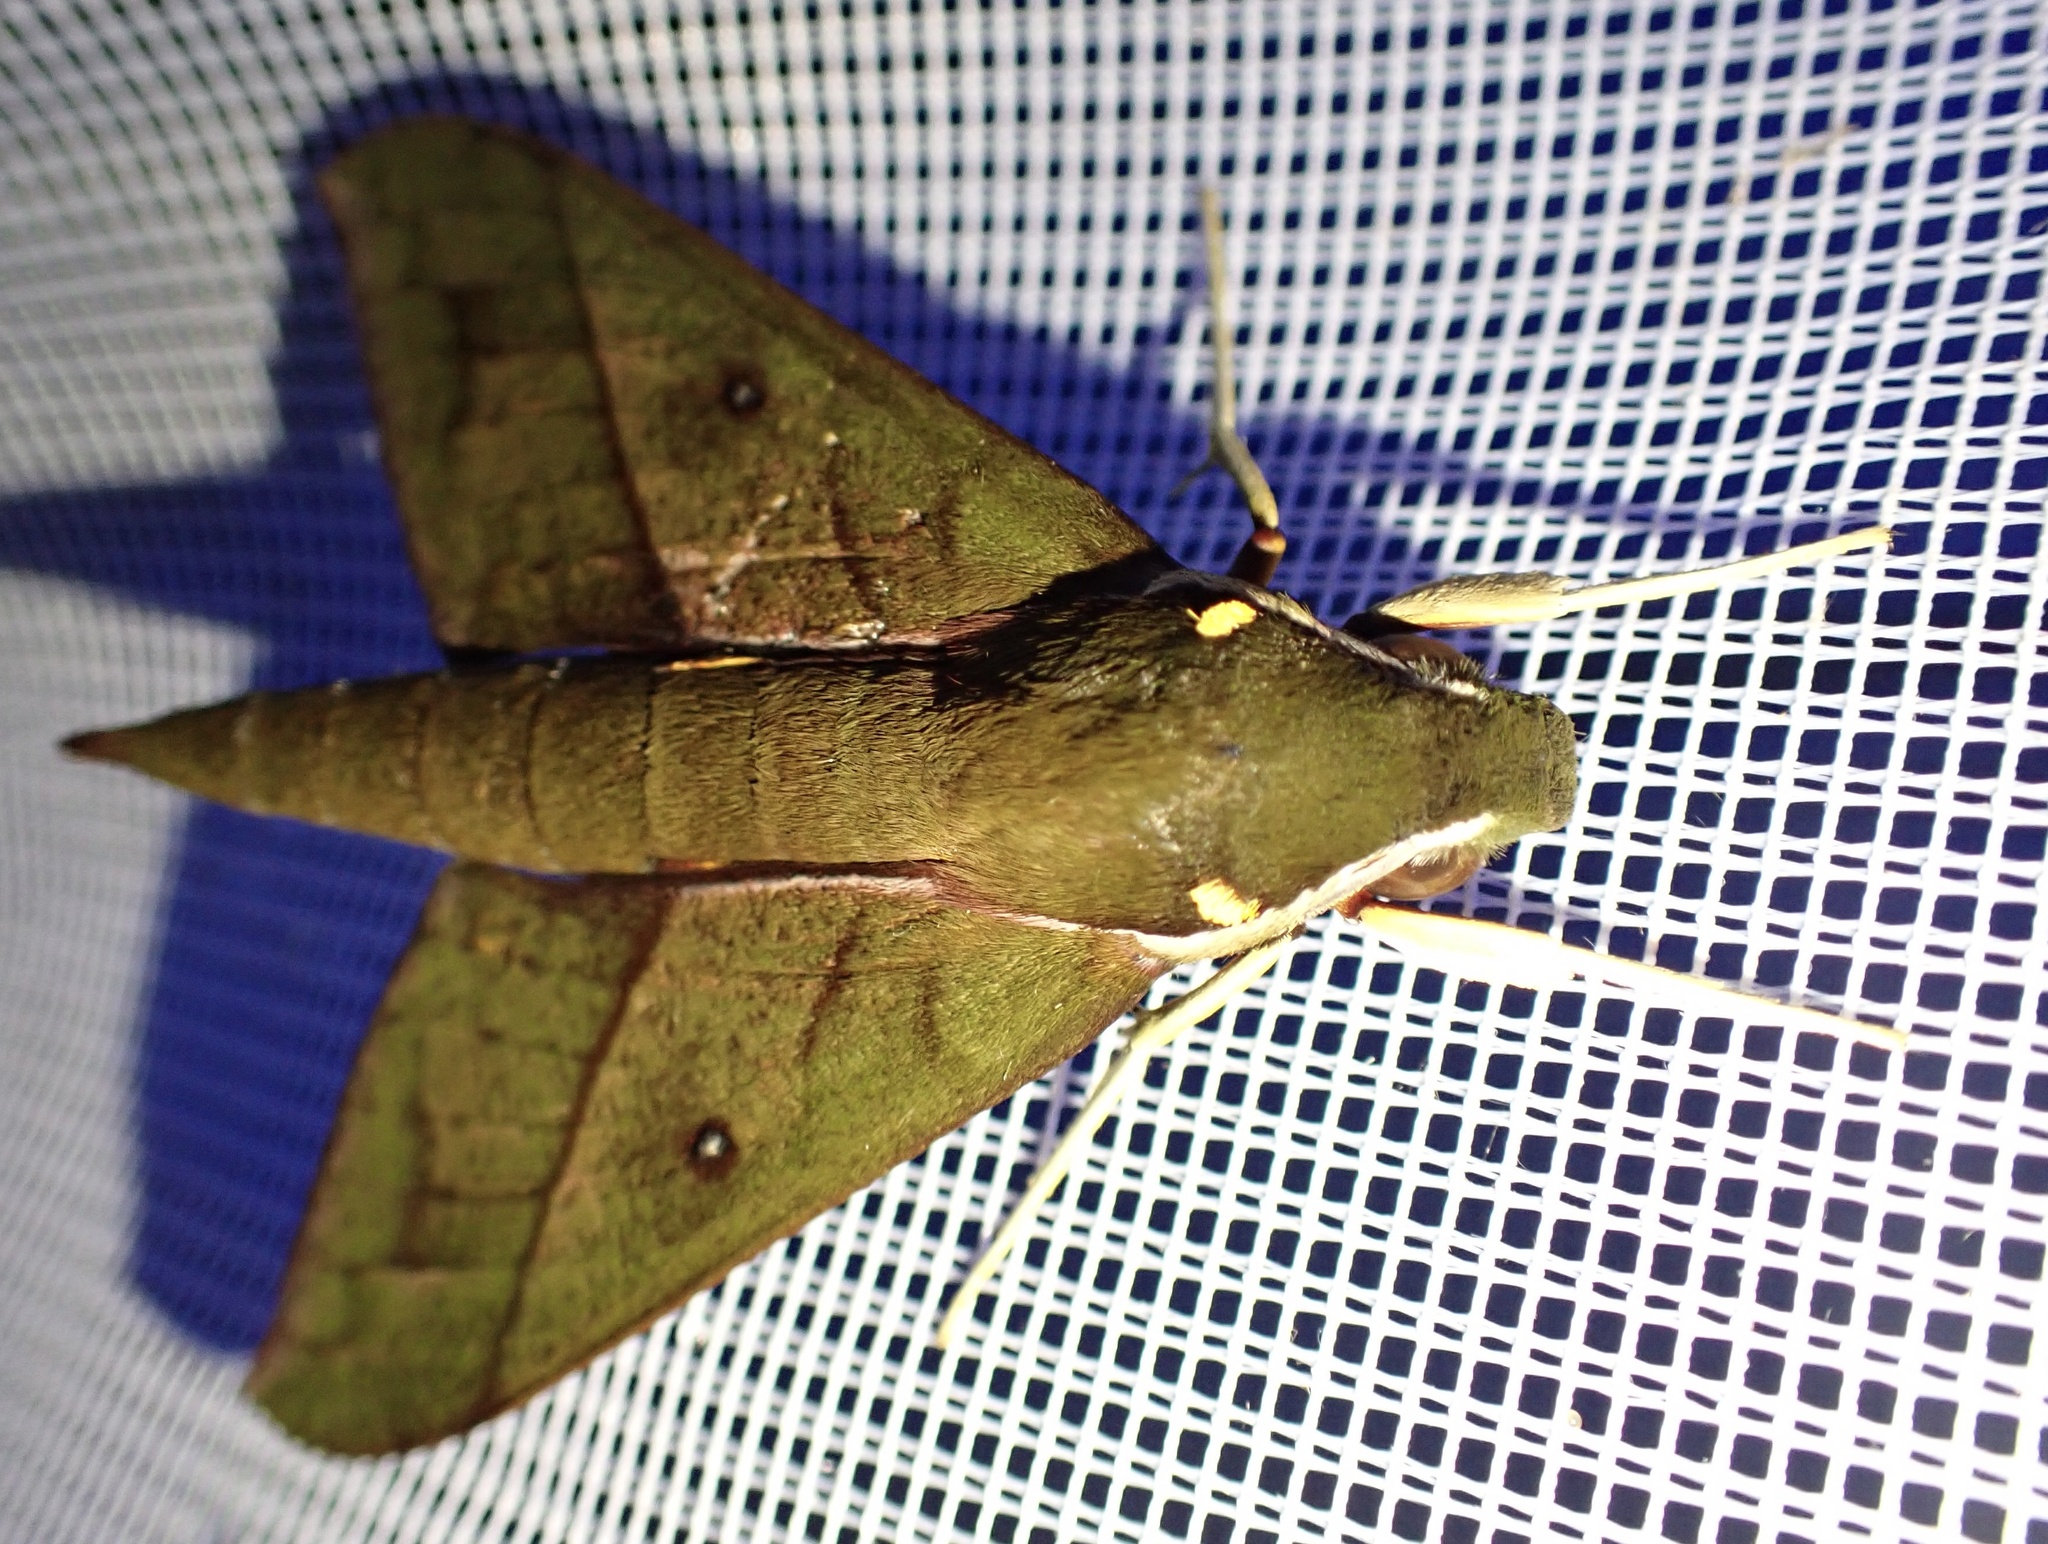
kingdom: Animalia
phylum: Arthropoda
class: Insecta
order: Lepidoptera
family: Sphingidae
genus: Gnathothlibus
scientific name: Gnathothlibus heliodes
